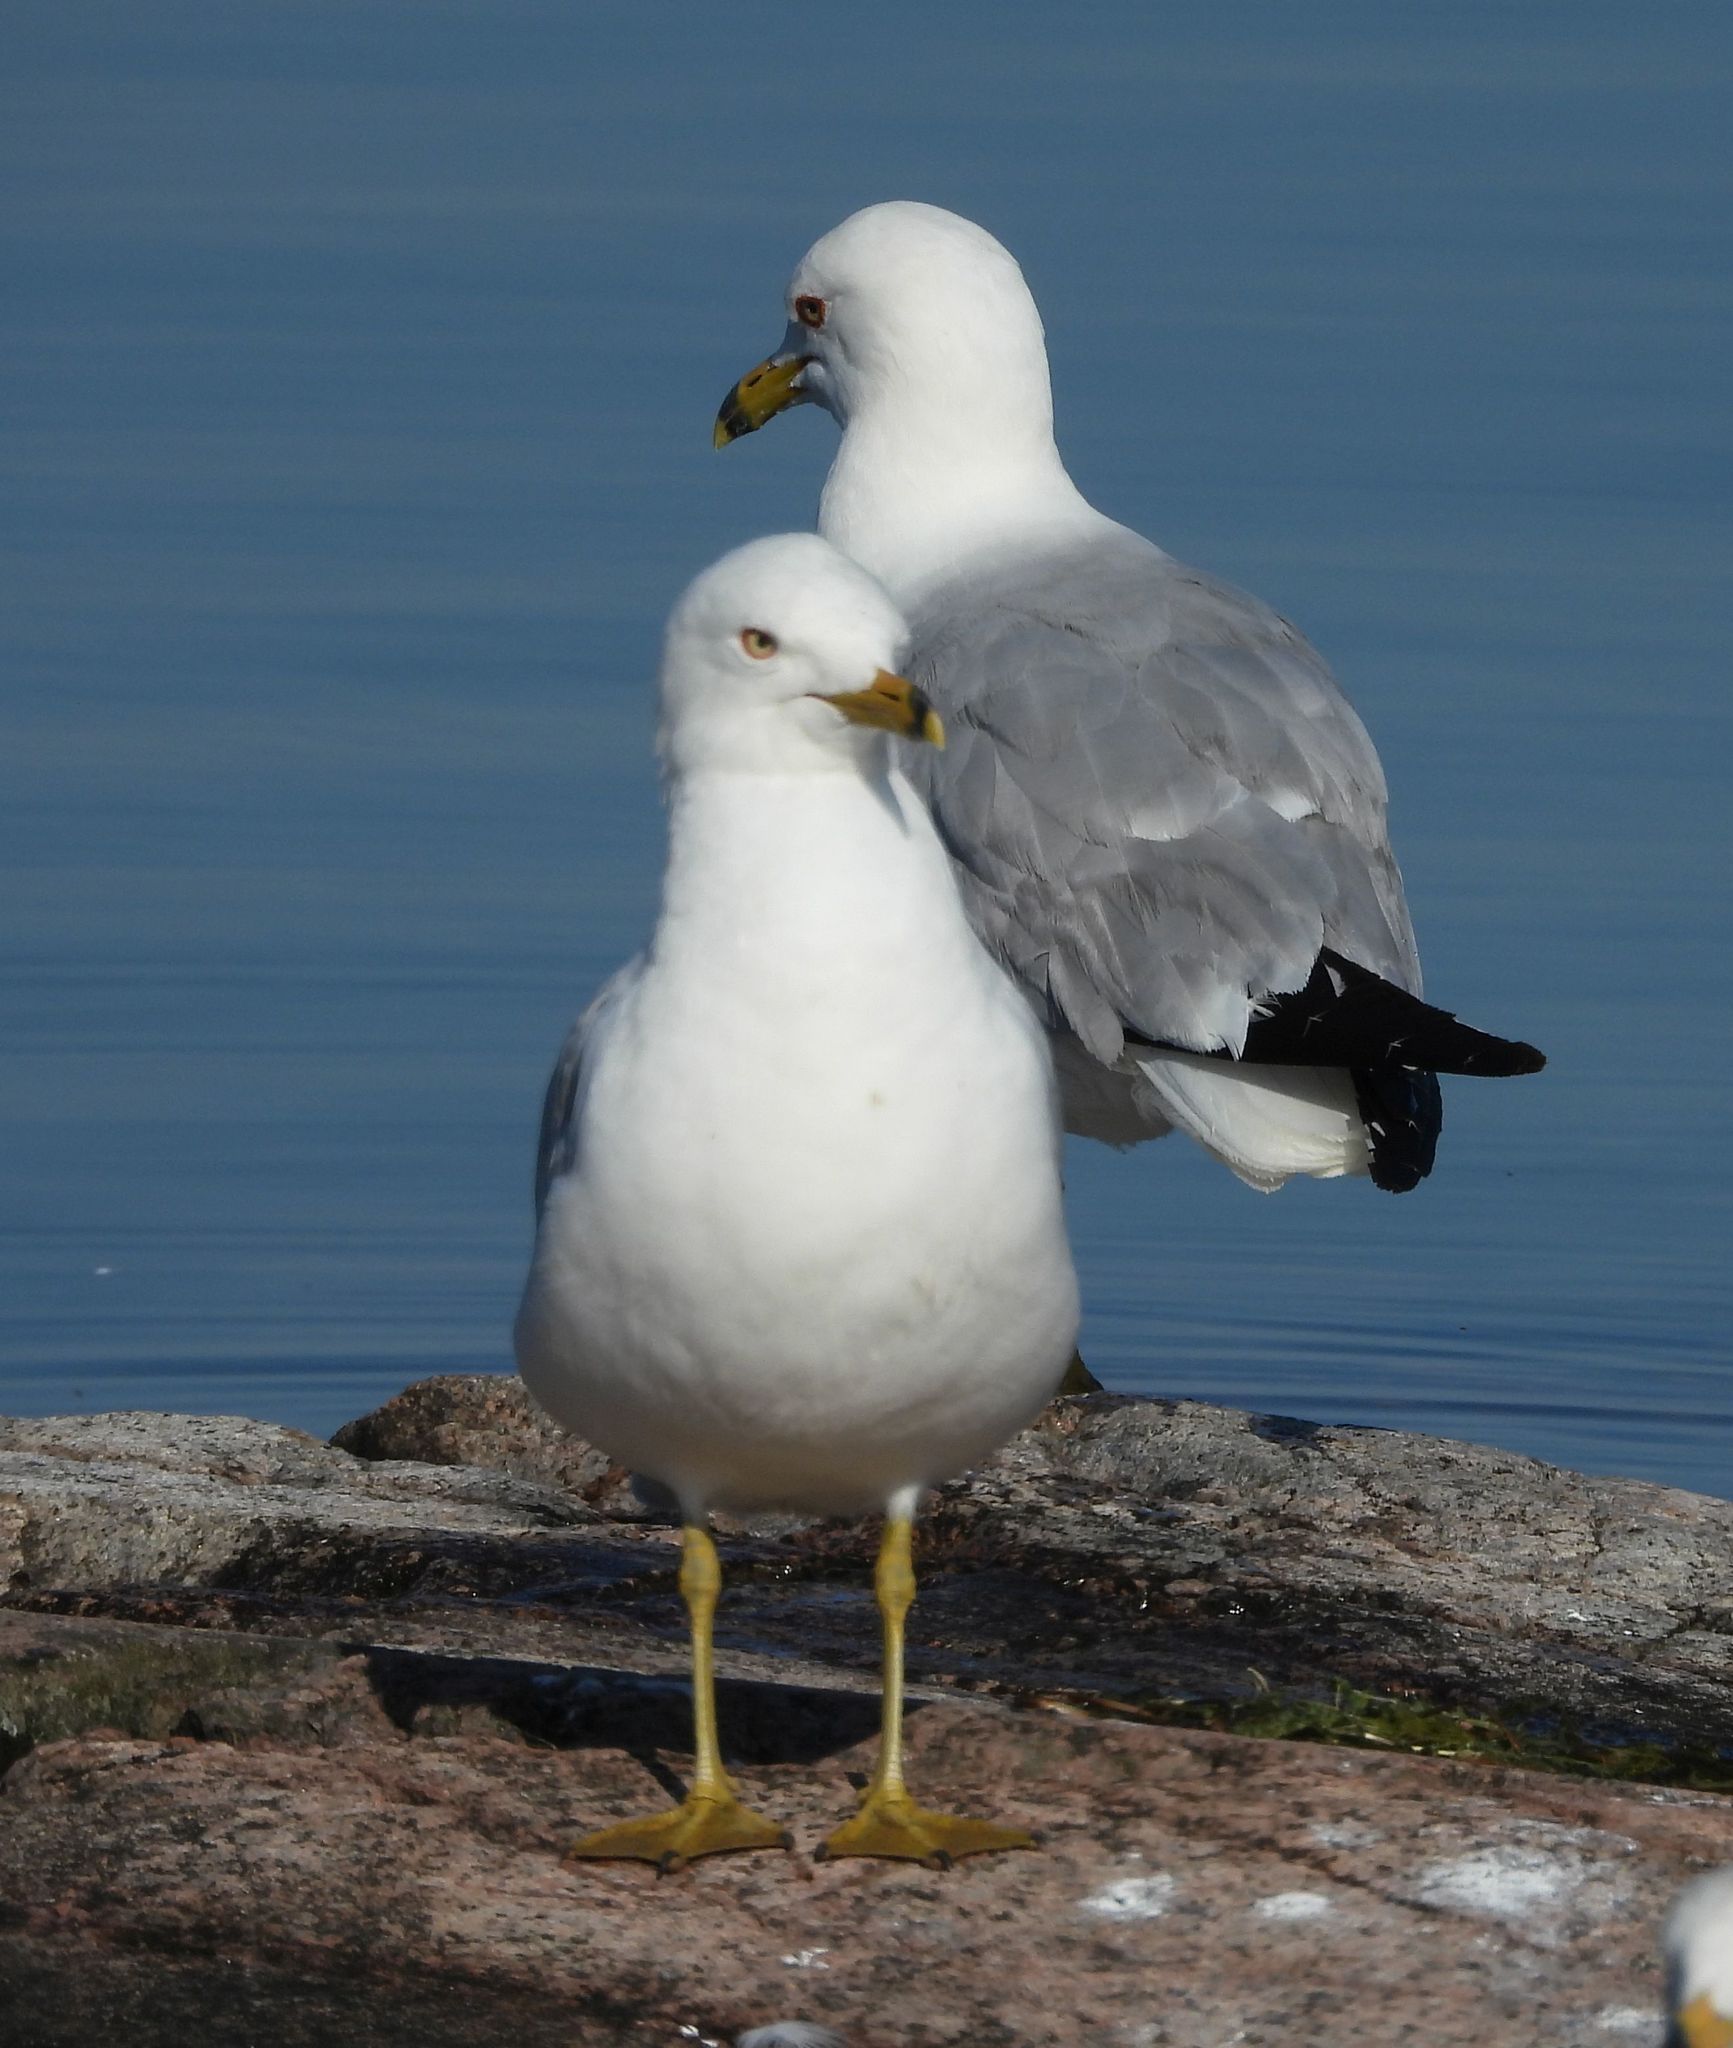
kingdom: Animalia
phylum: Chordata
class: Aves
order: Charadriiformes
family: Laridae
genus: Larus
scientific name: Larus delawarensis
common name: Ring-billed gull
